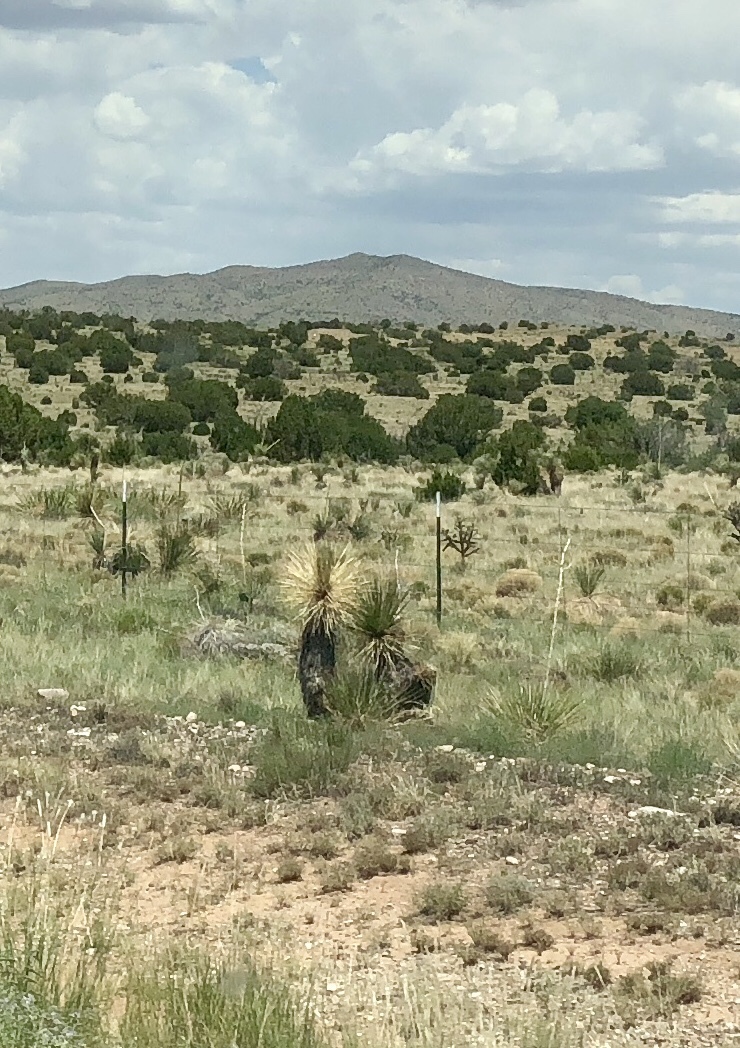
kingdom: Plantae
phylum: Tracheophyta
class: Liliopsida
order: Asparagales
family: Asparagaceae
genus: Yucca
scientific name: Yucca elata
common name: Palmella
